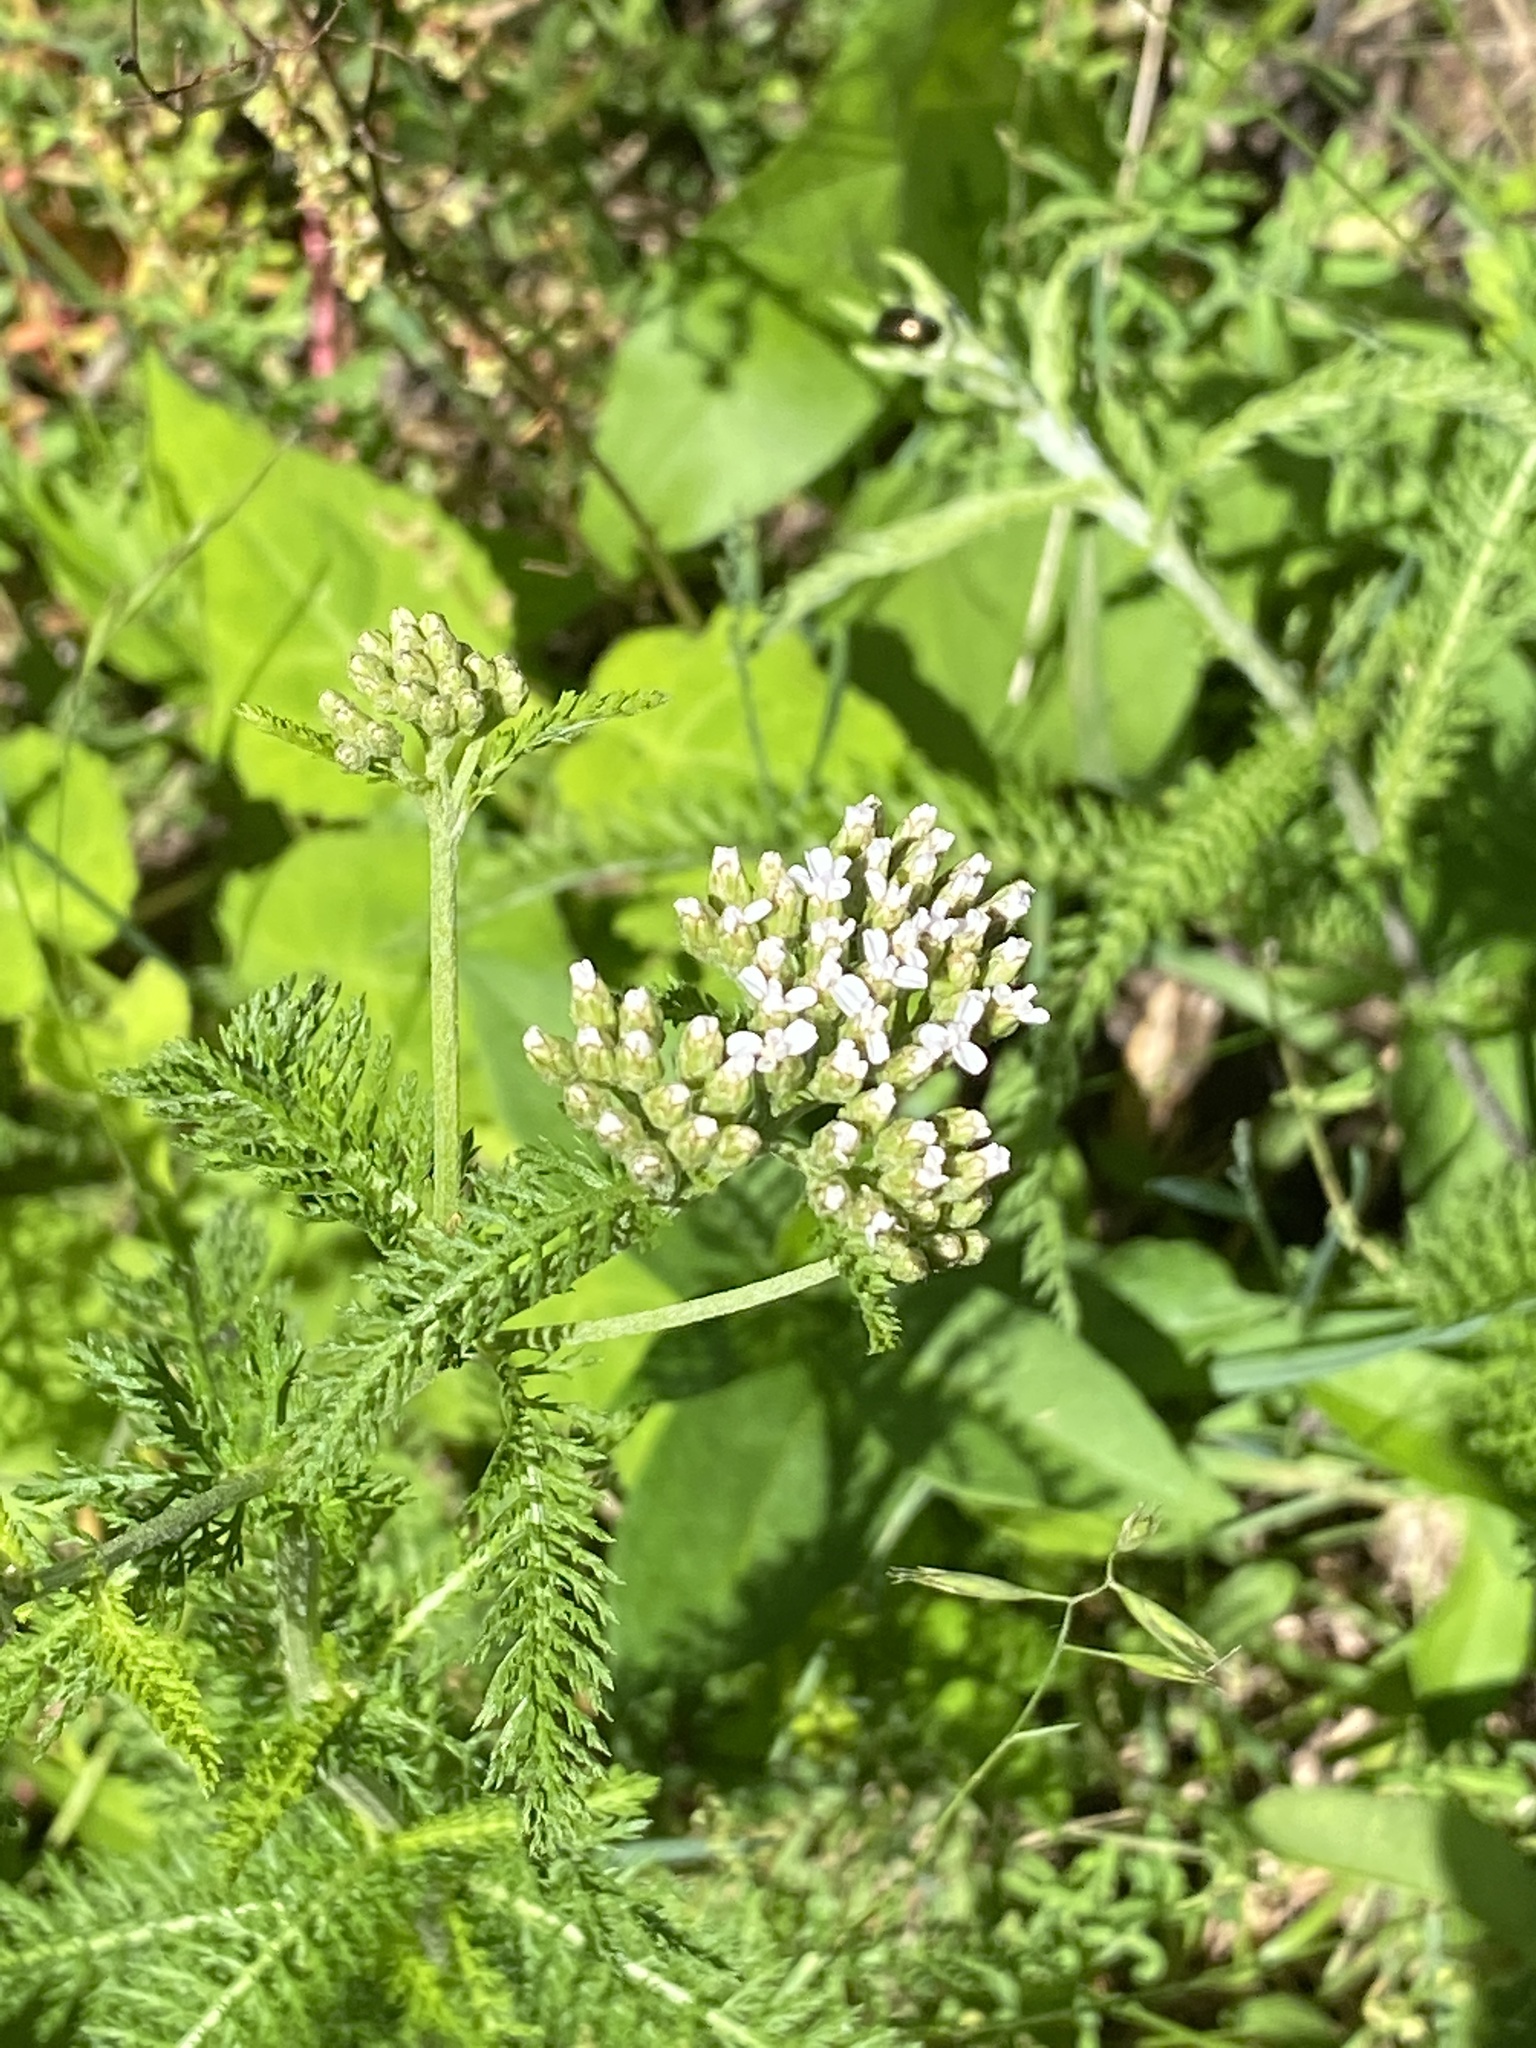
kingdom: Plantae
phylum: Tracheophyta
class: Magnoliopsida
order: Asterales
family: Asteraceae
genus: Achillea
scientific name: Achillea millefolium
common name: Yarrow
